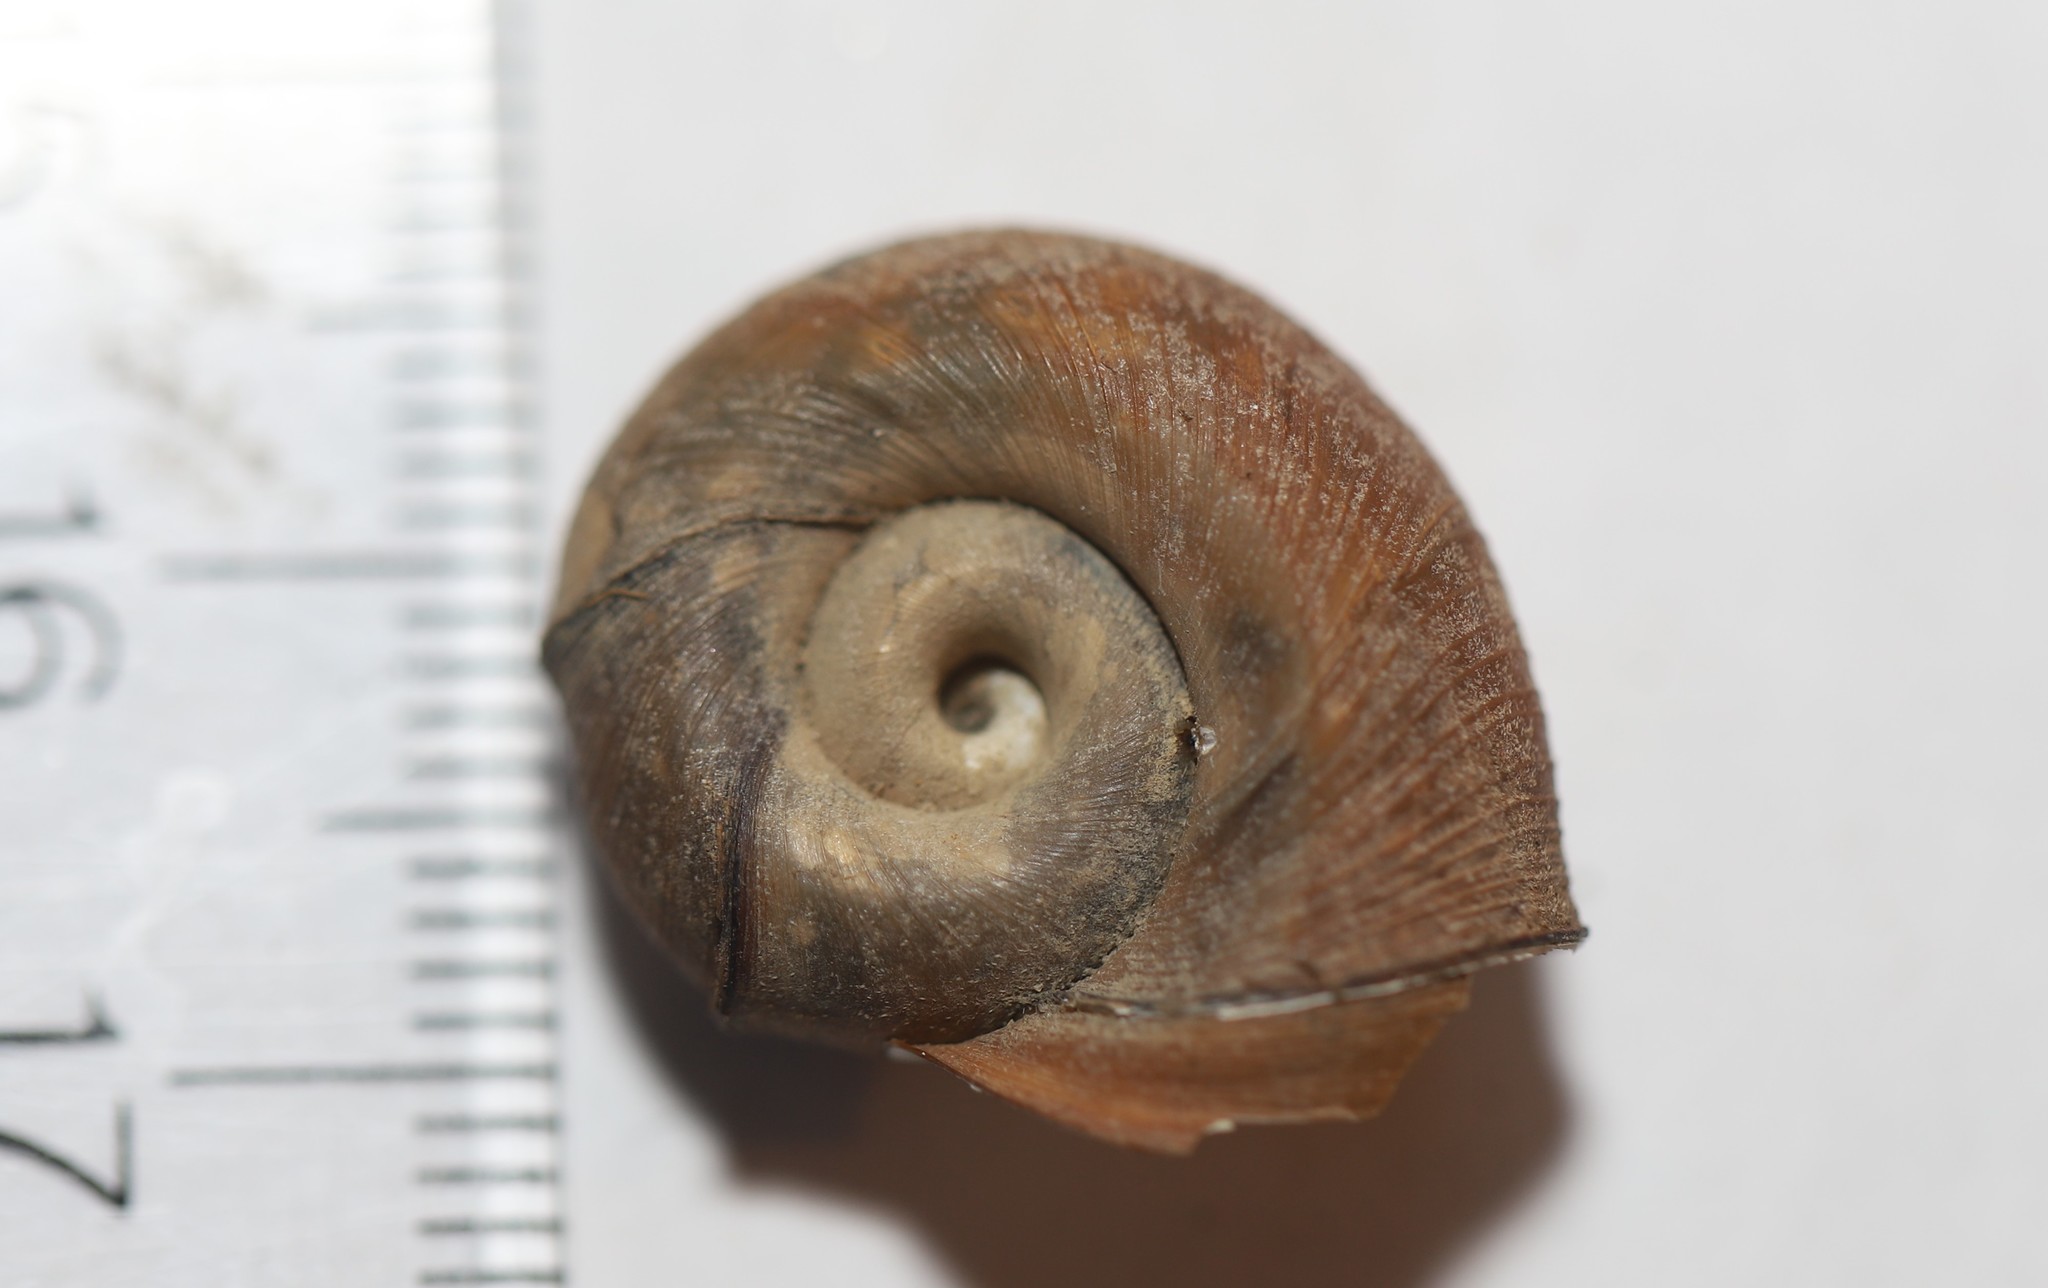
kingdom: Animalia
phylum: Mollusca
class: Gastropoda
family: Planorbidae
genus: Planorbella
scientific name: Planorbella trivolvis
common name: Marsh rams-horn
